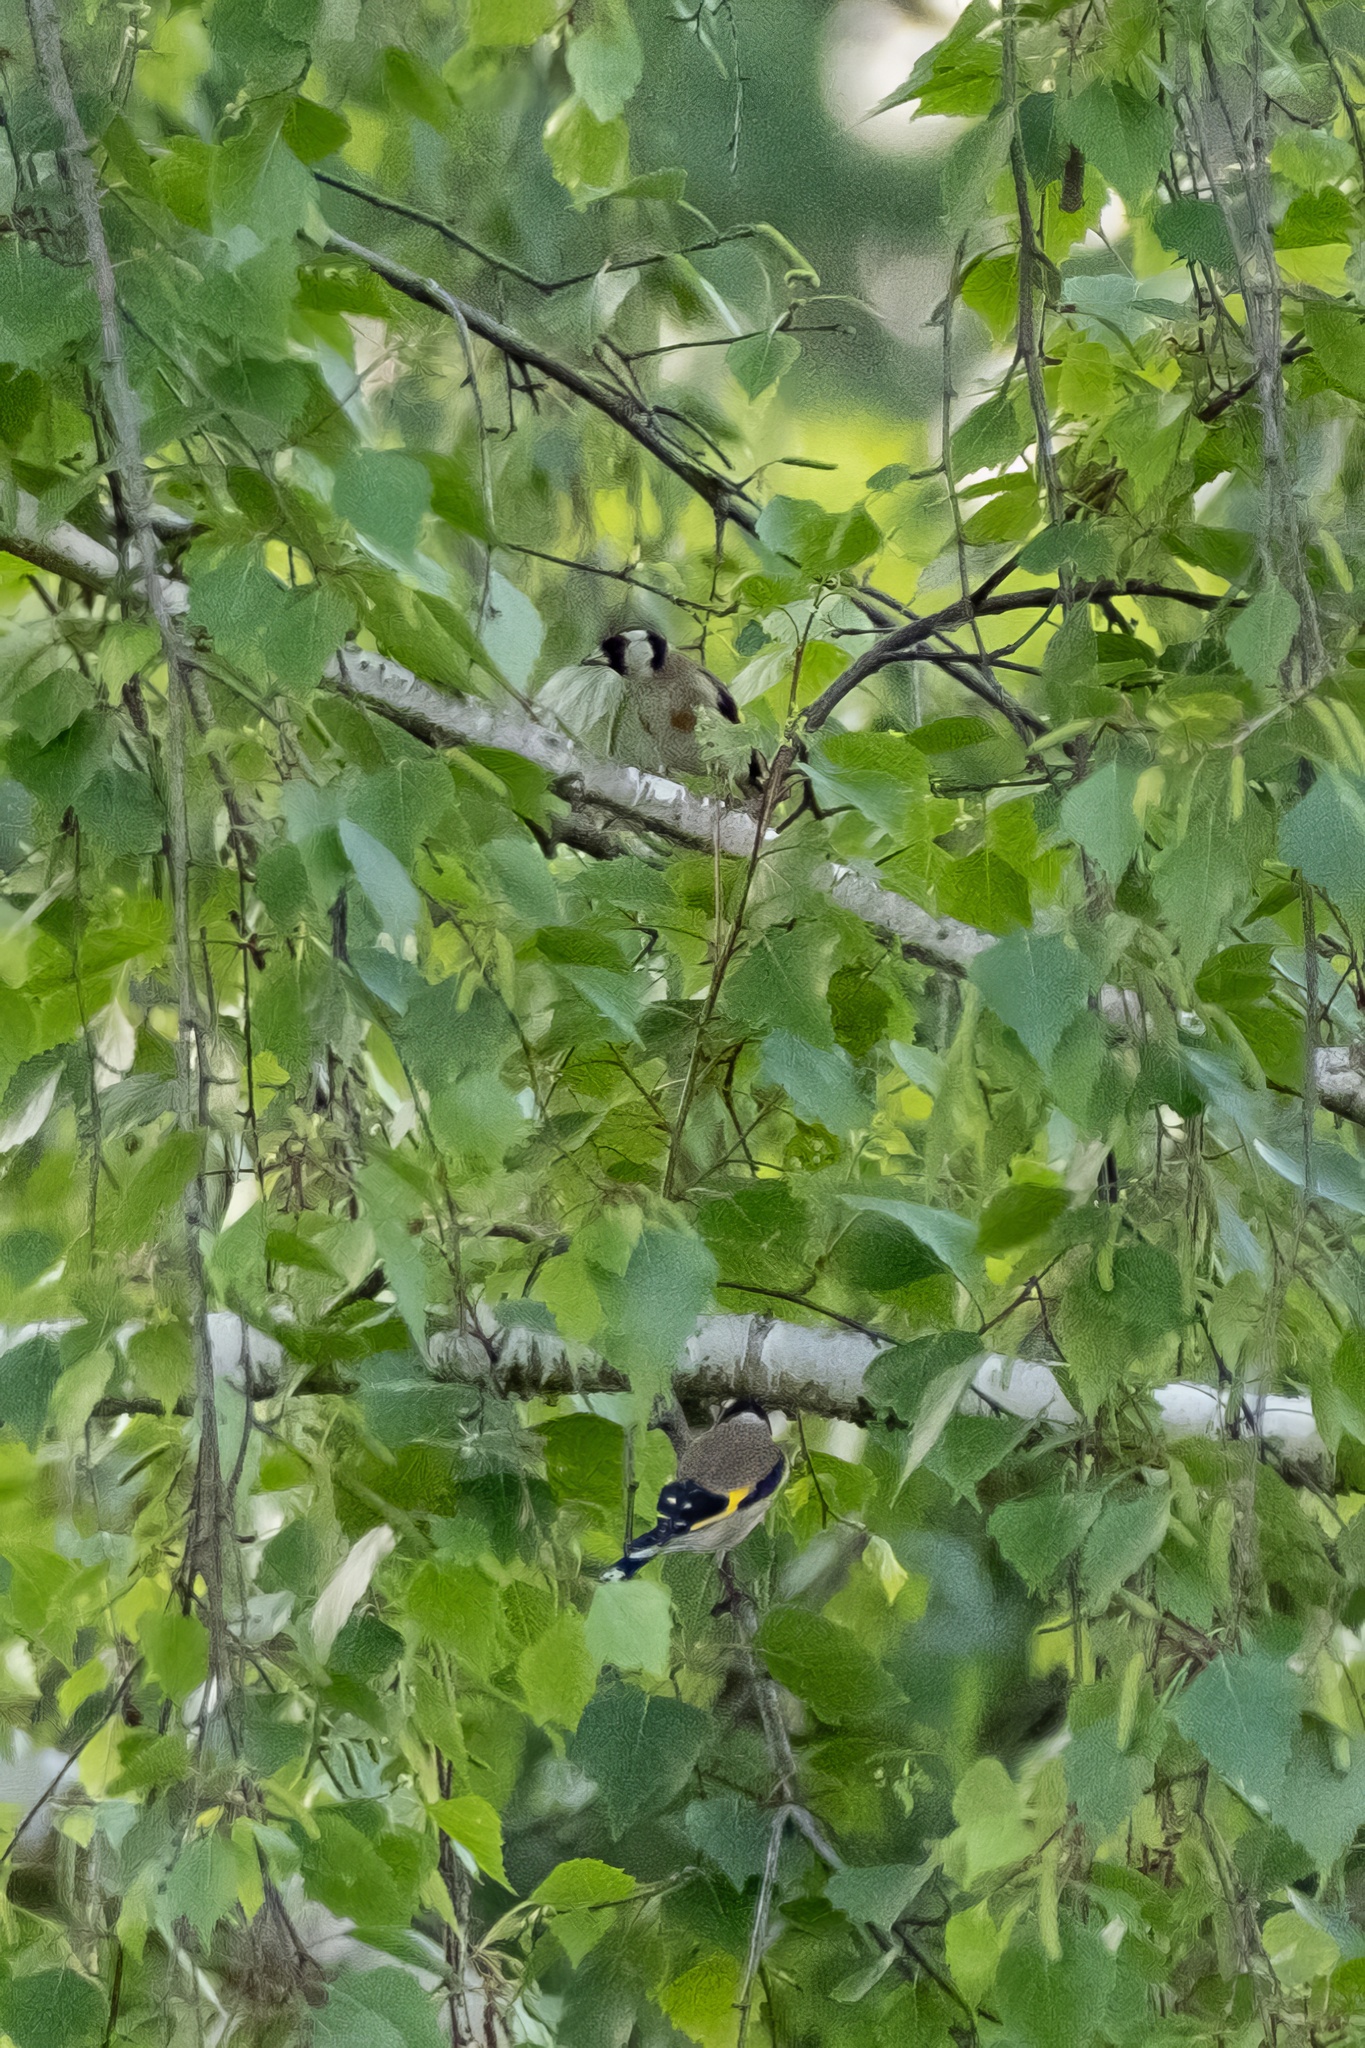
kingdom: Animalia
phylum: Chordata
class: Aves
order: Passeriformes
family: Fringillidae
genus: Carduelis
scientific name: Carduelis carduelis
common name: European goldfinch
